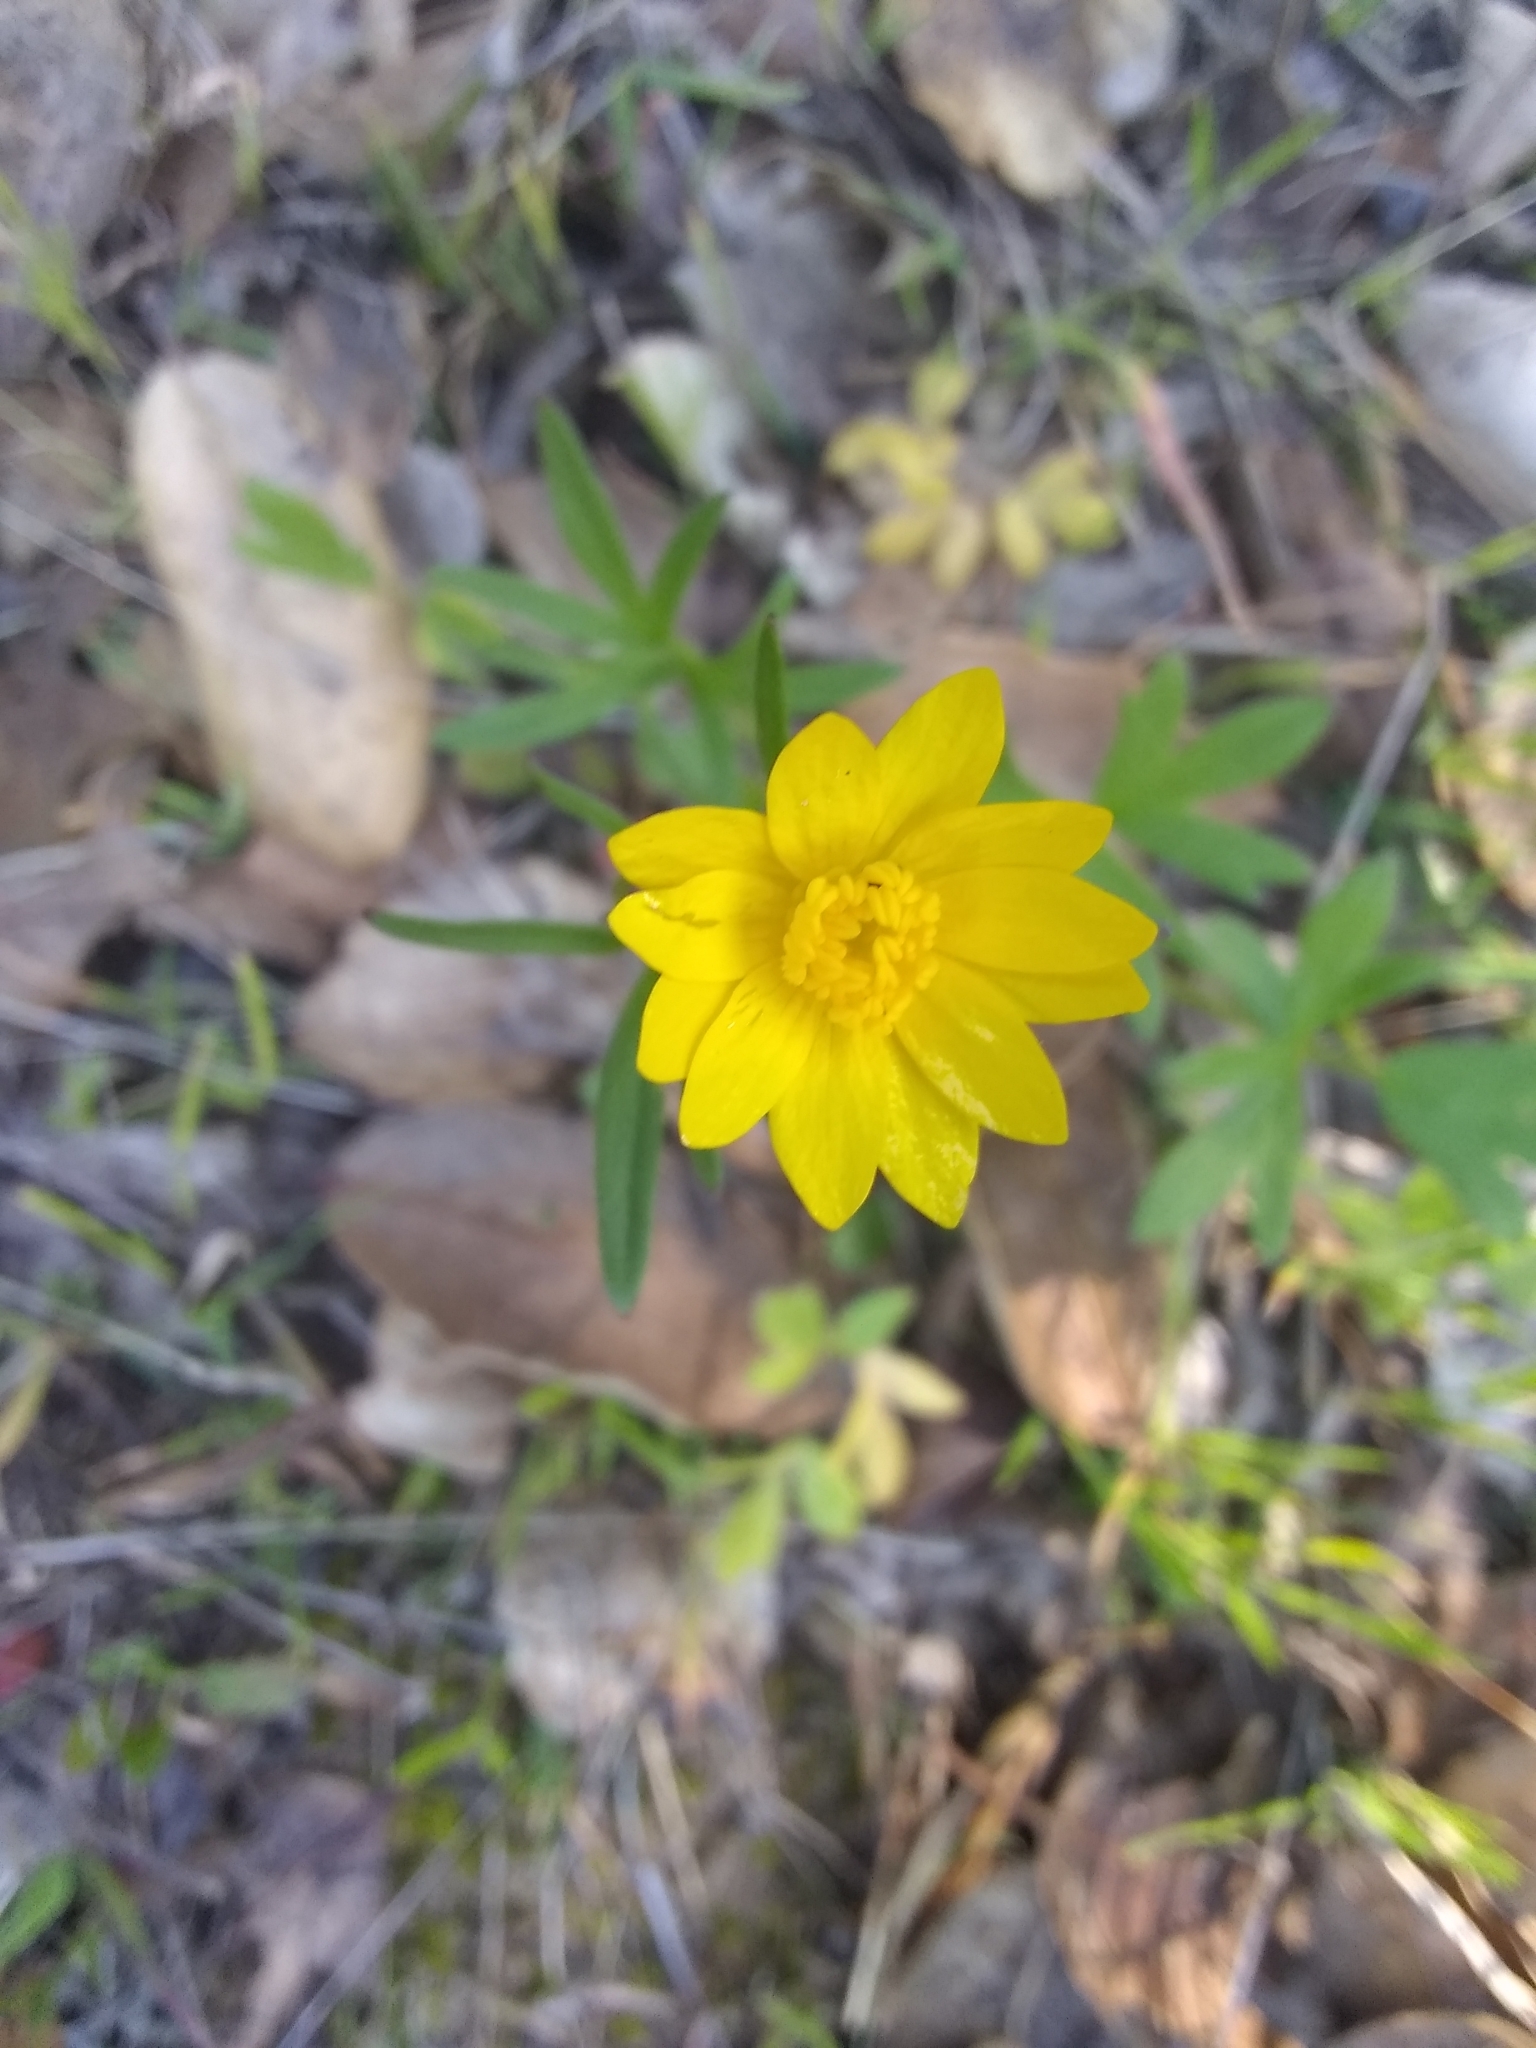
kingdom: Plantae
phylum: Tracheophyta
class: Magnoliopsida
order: Ranunculales
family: Ranunculaceae
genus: Ranunculus
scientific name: Ranunculus californicus
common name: California buttercup
